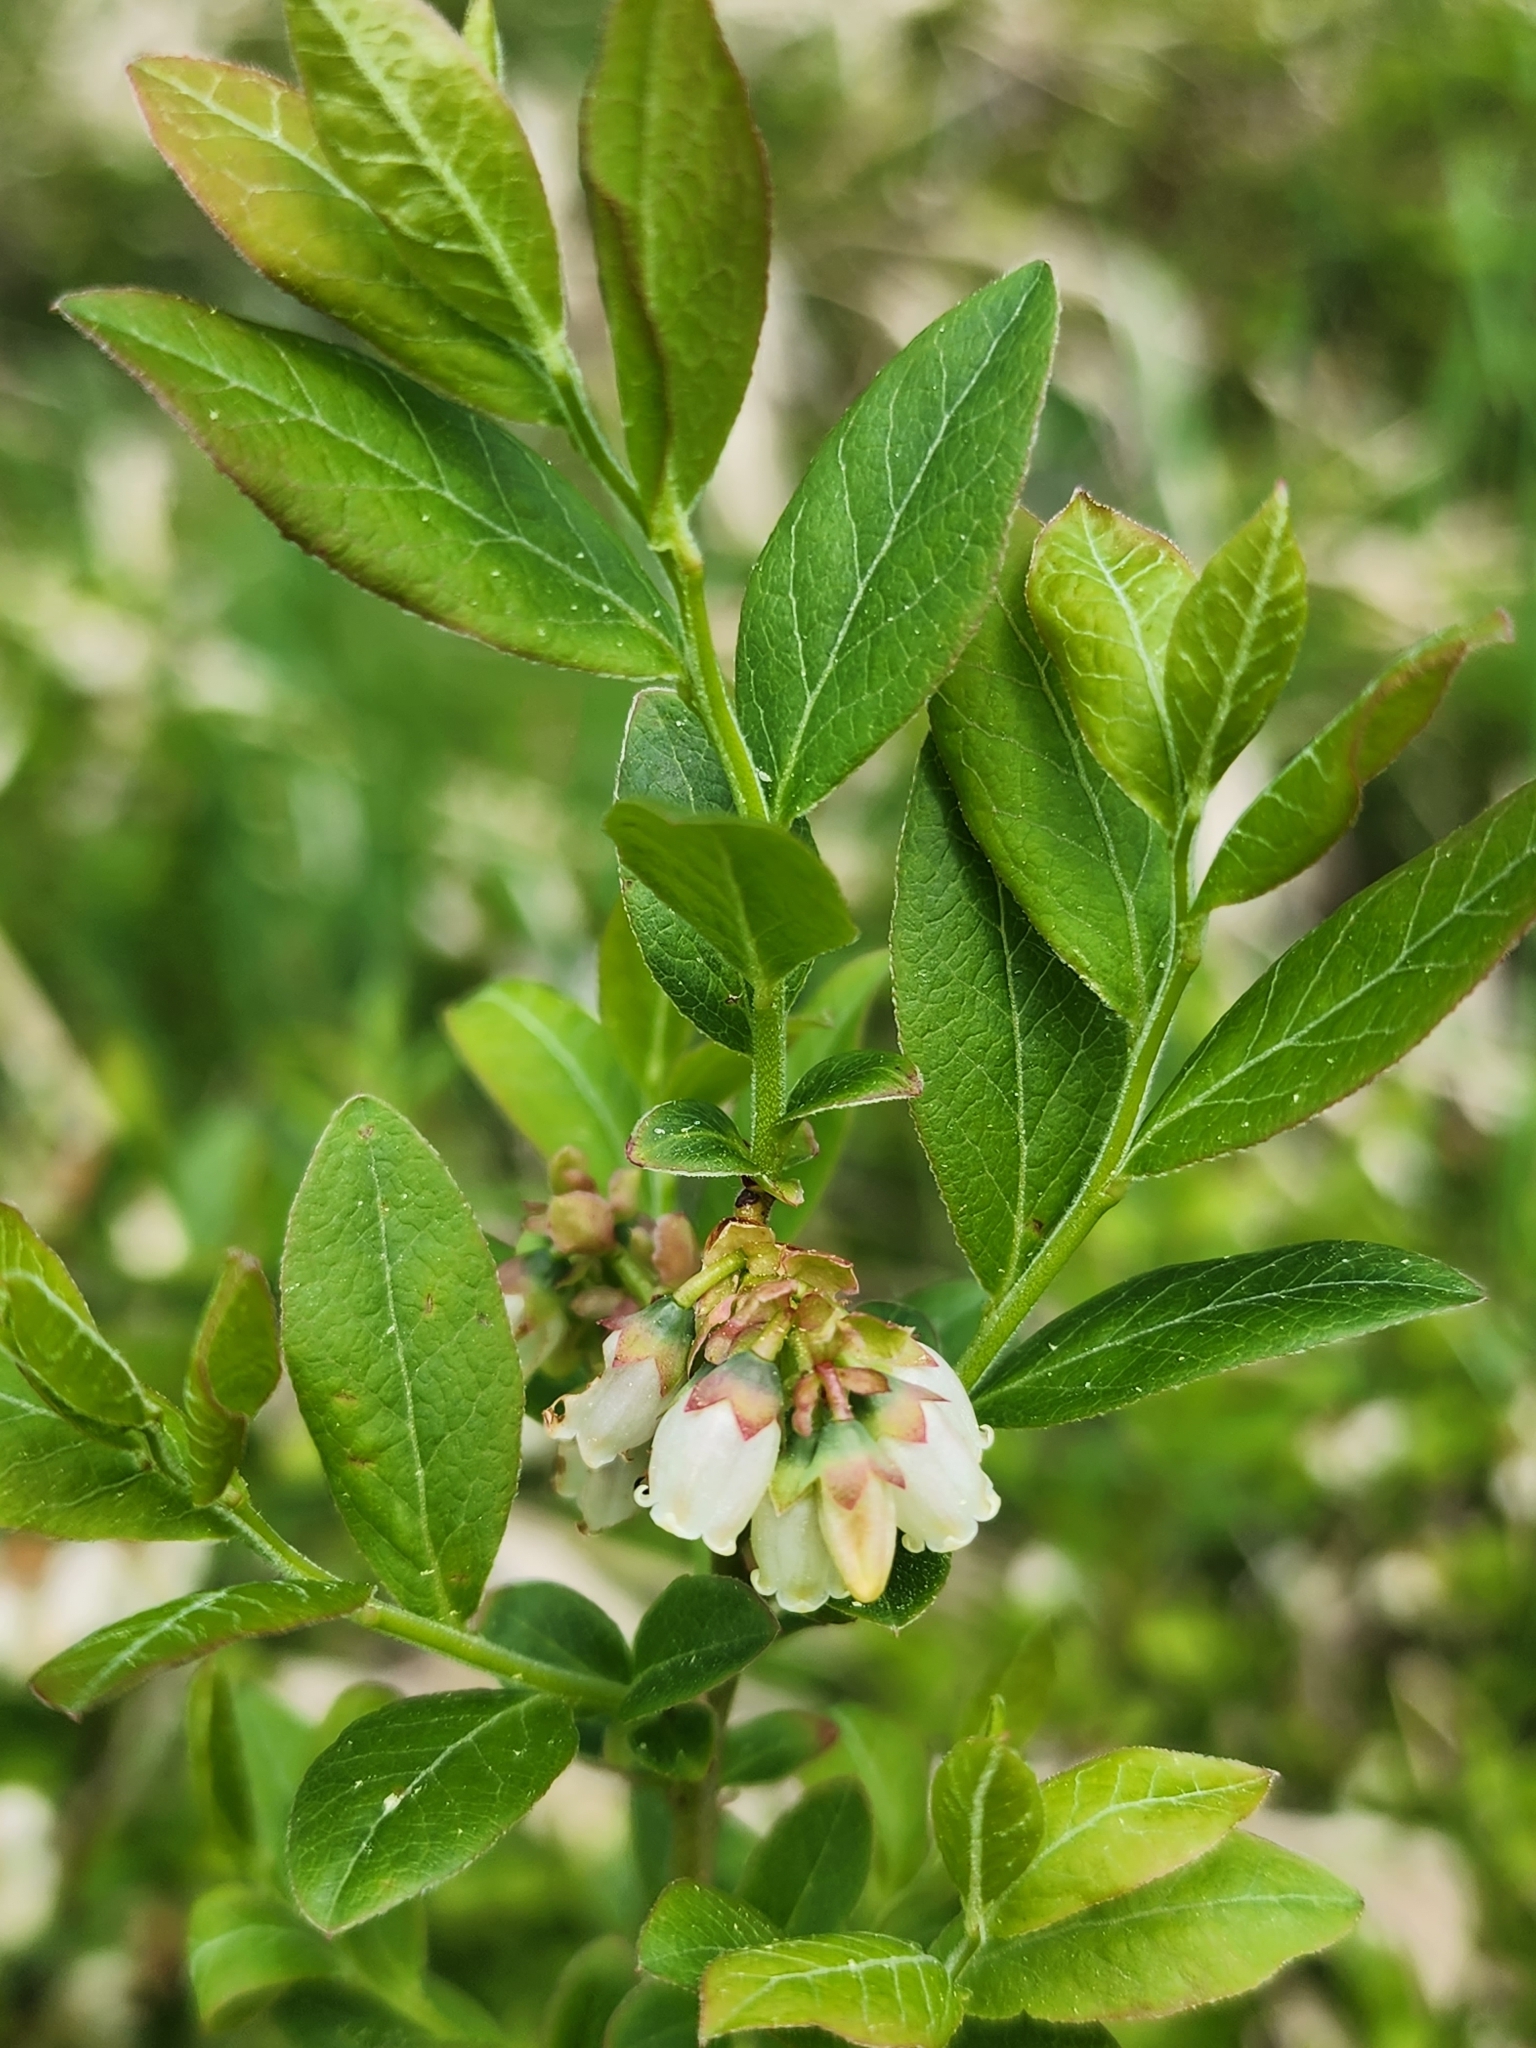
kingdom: Plantae
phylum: Tracheophyta
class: Magnoliopsida
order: Ericales
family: Ericaceae
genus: Vaccinium
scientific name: Vaccinium angustifolium
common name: Early lowbush blueberry
